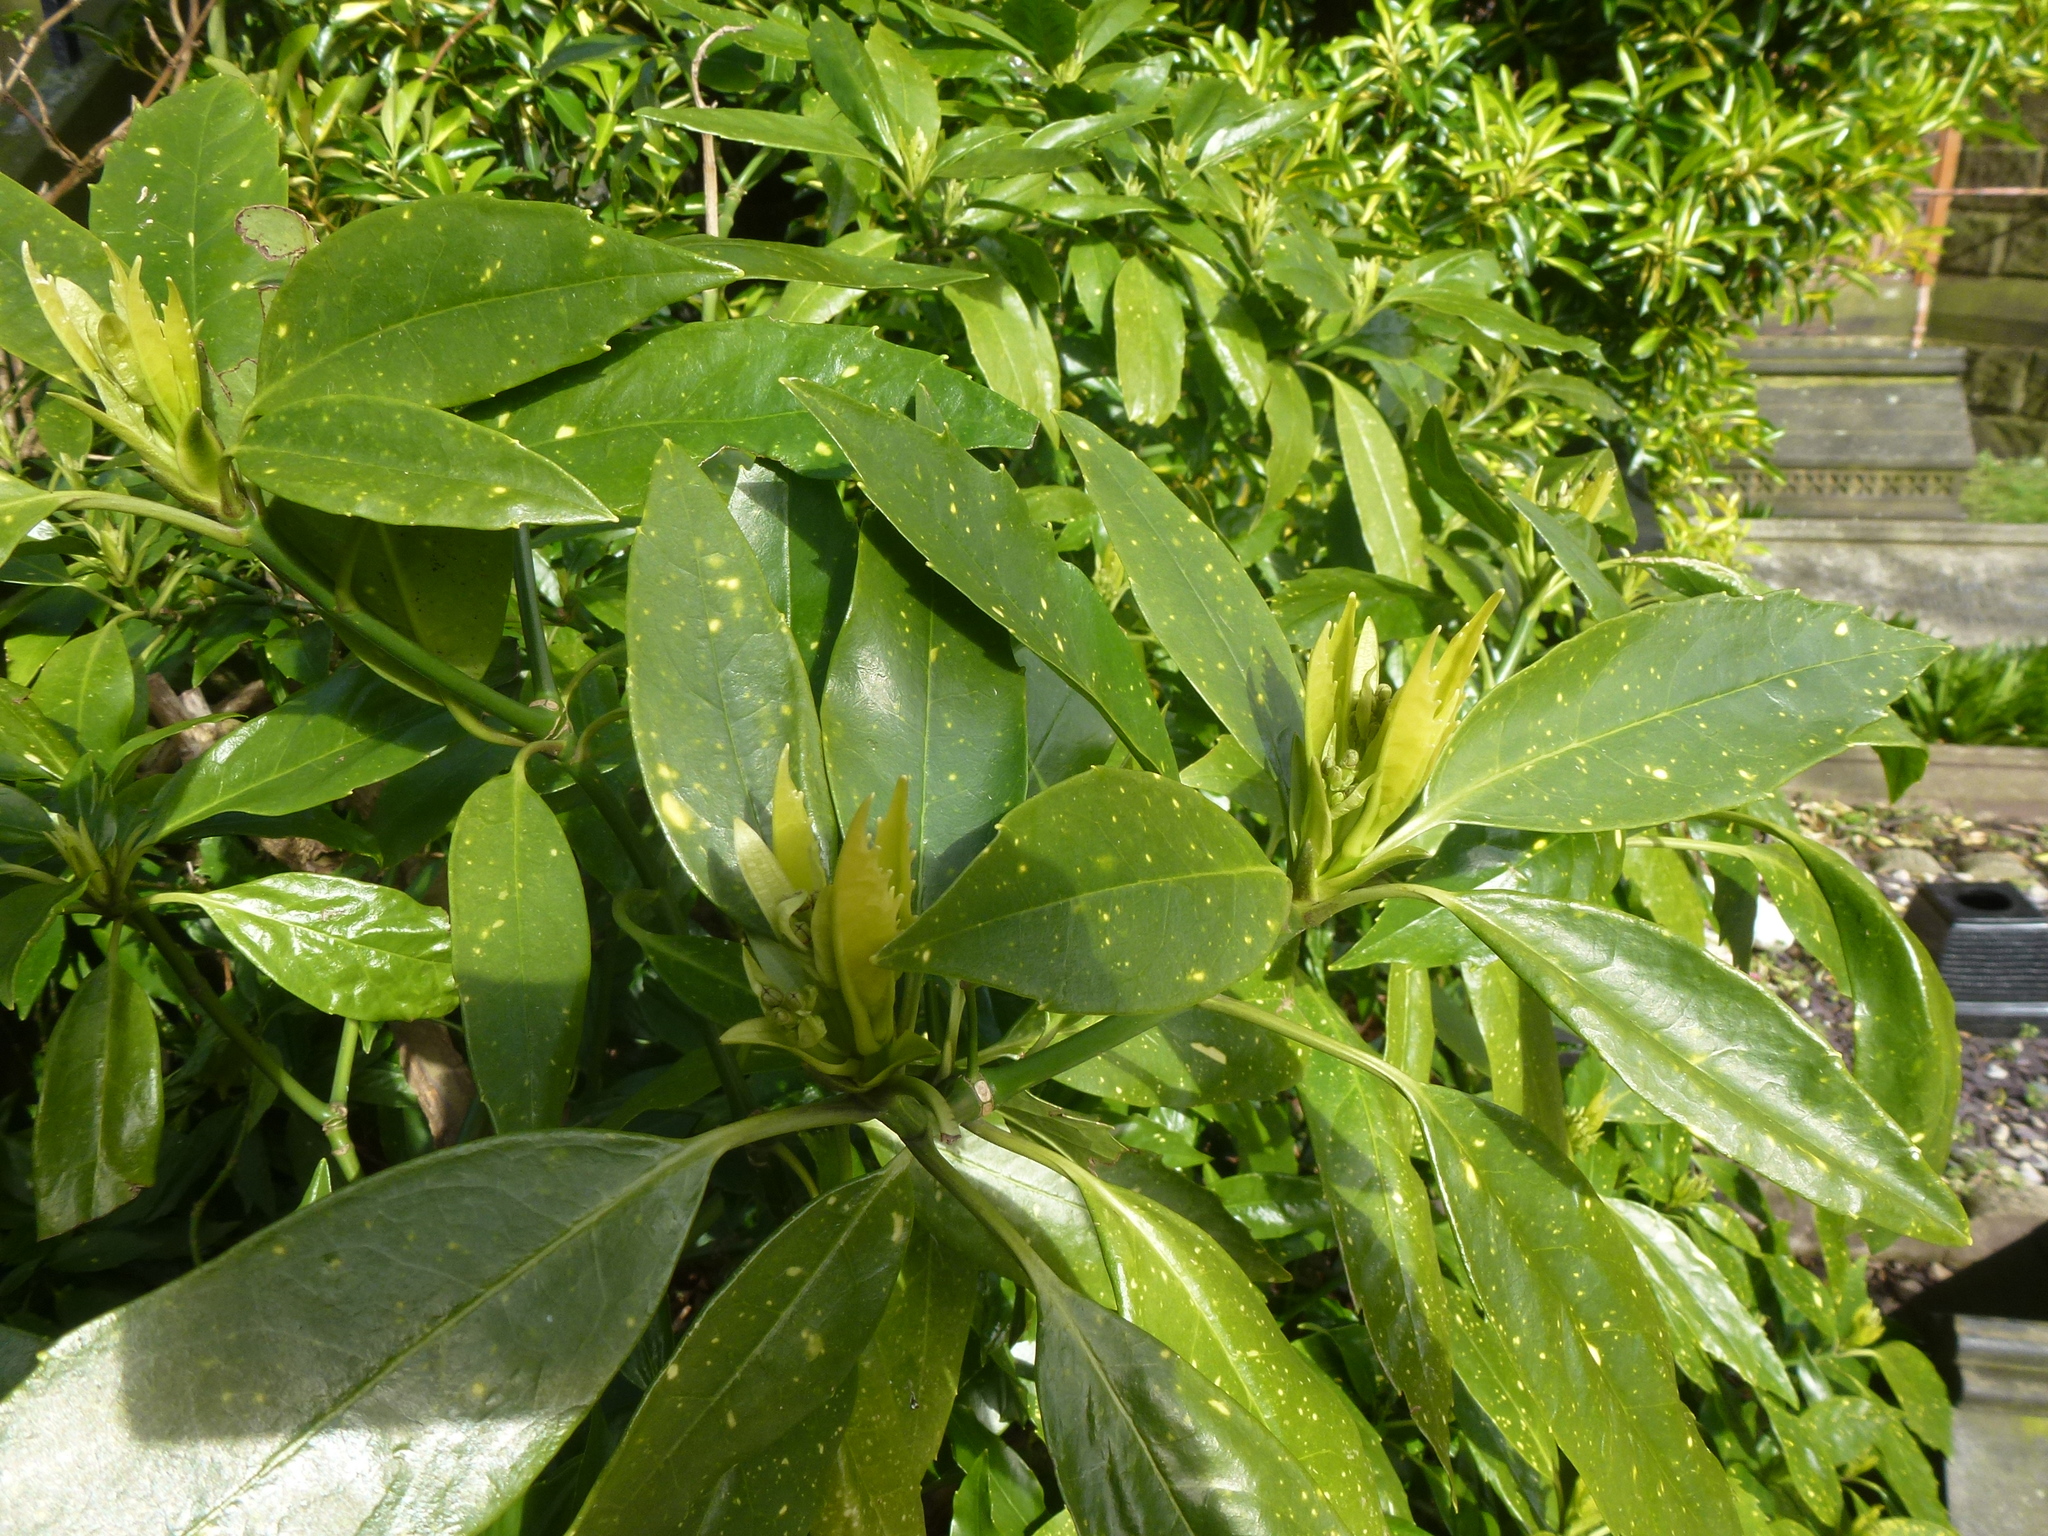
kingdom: Plantae
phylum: Tracheophyta
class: Magnoliopsida
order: Garryales
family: Garryaceae
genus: Aucuba
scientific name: Aucuba japonica
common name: Spotted-laurel
